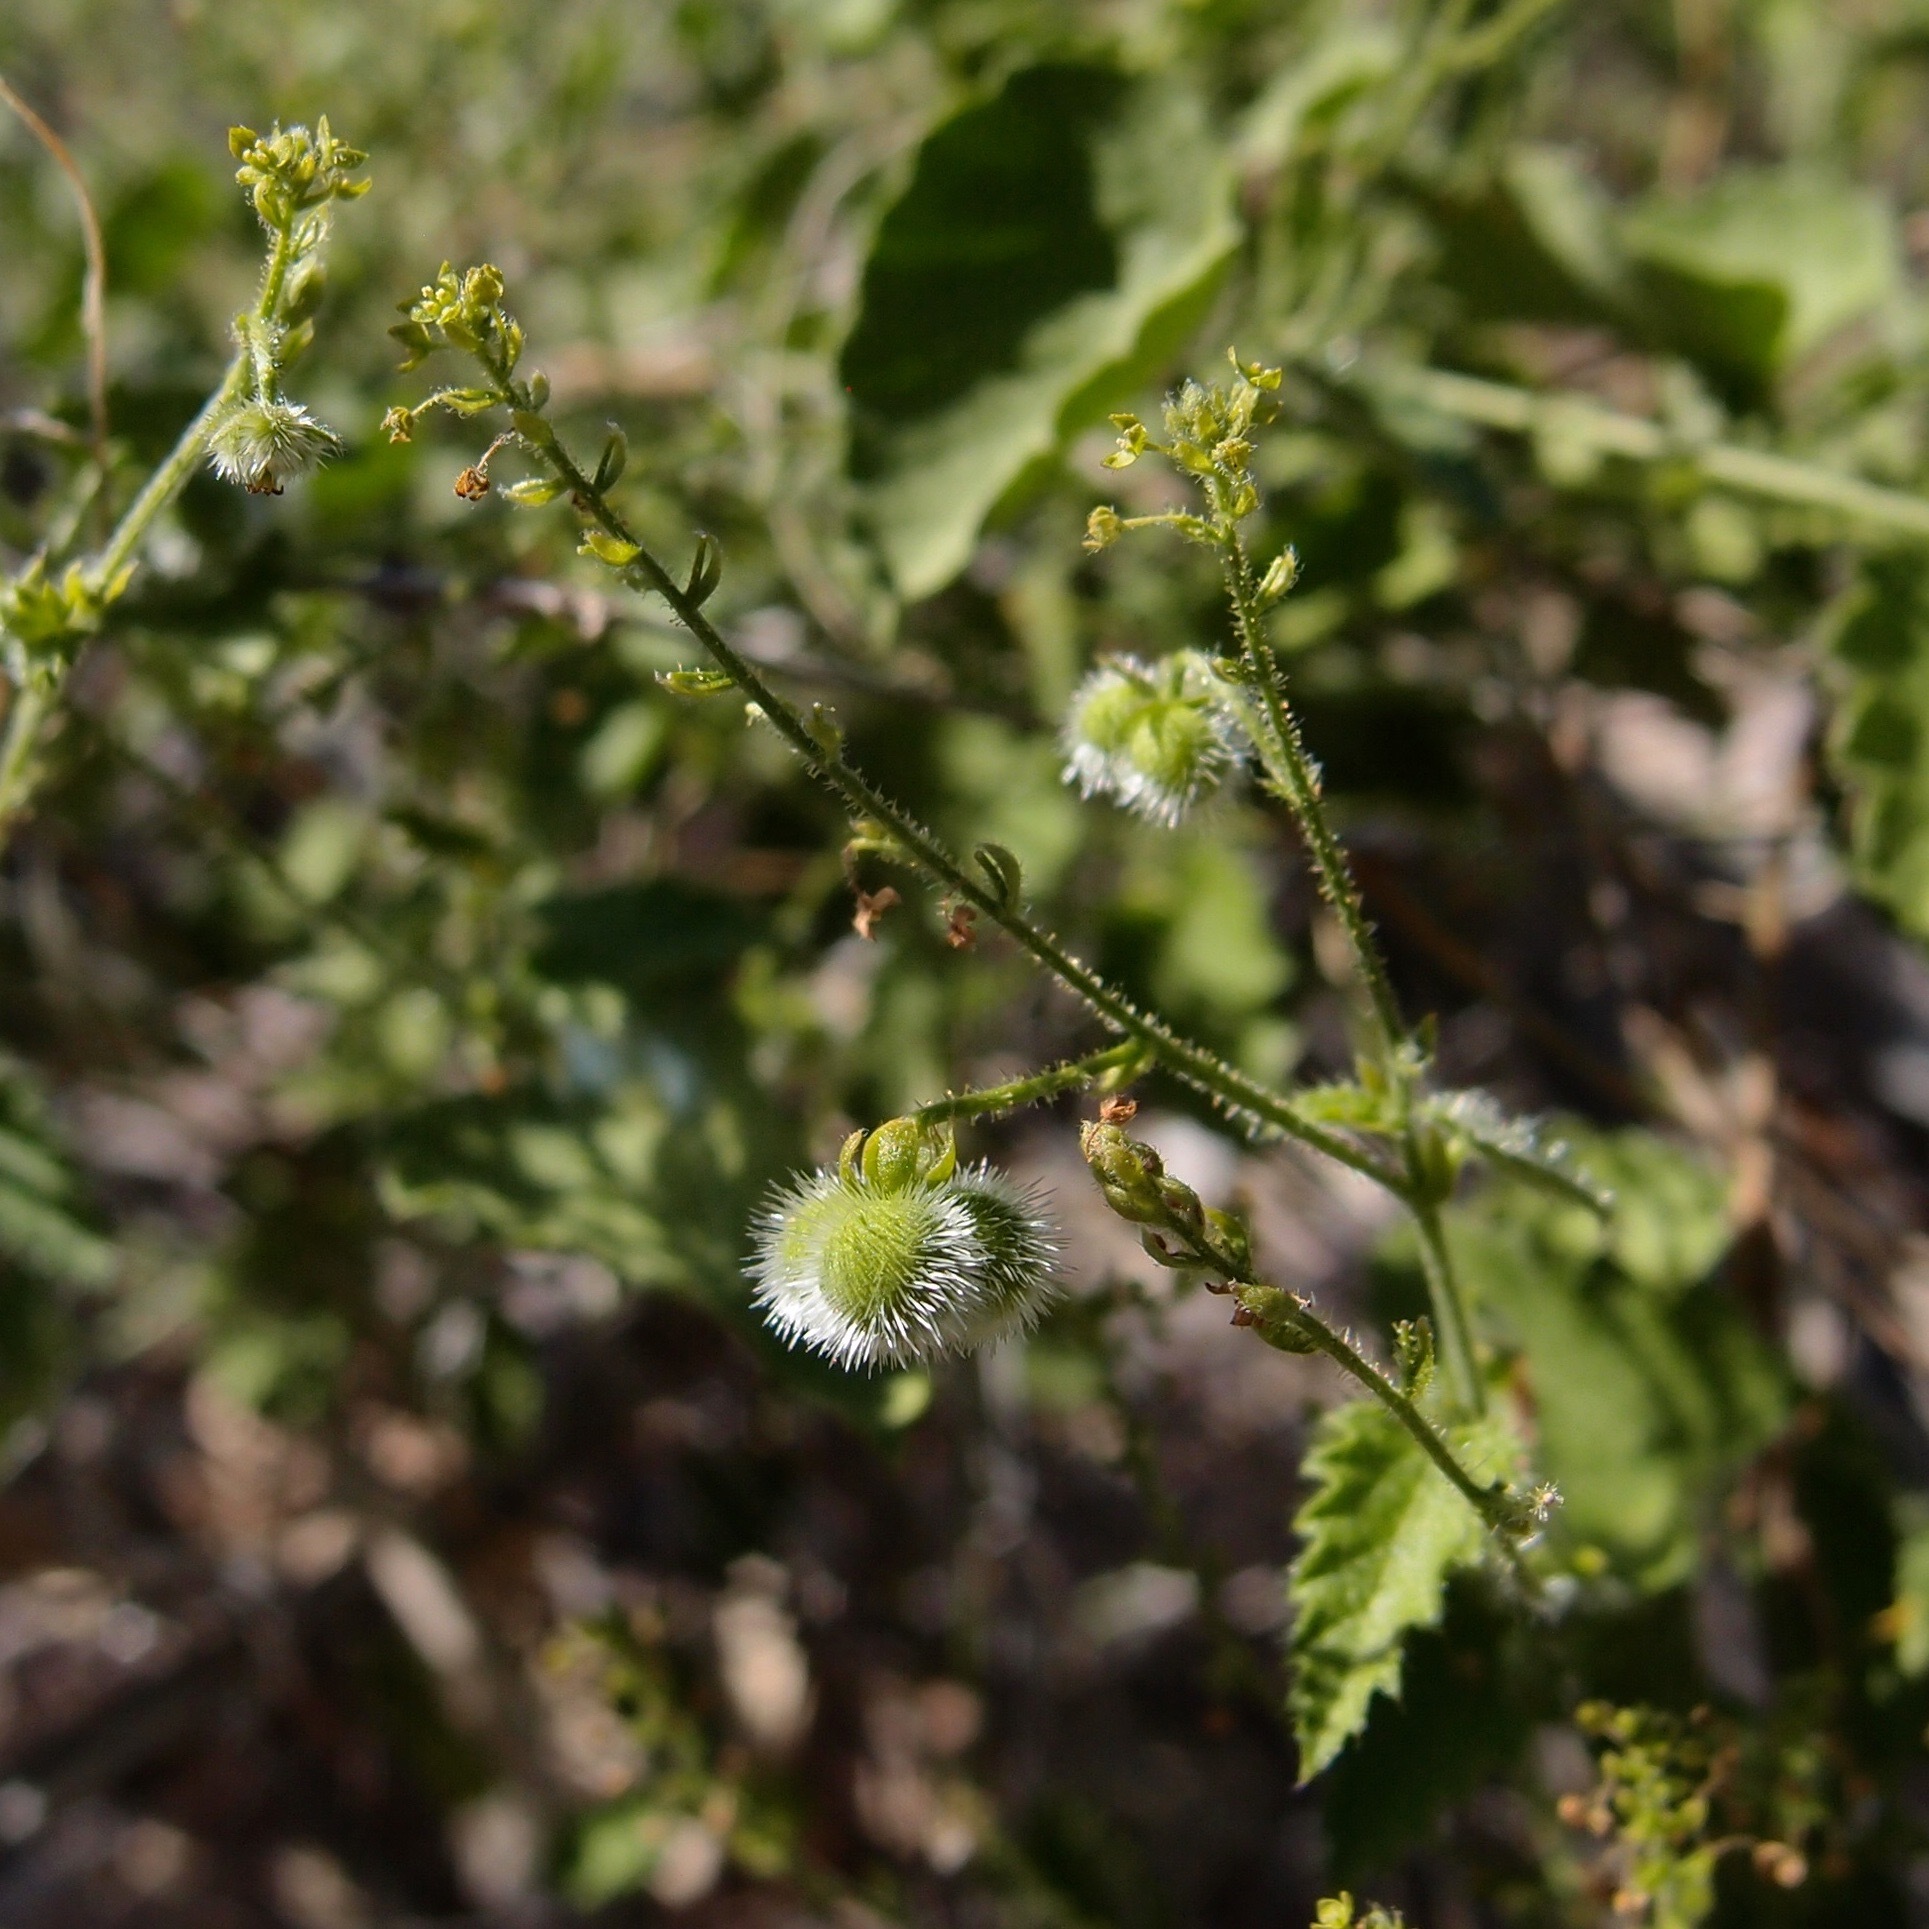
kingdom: Plantae
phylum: Tracheophyta
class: Magnoliopsida
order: Malpighiales
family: Euphorbiaceae
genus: Tragia
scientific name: Tragia jonesii
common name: Jones' noseburn
